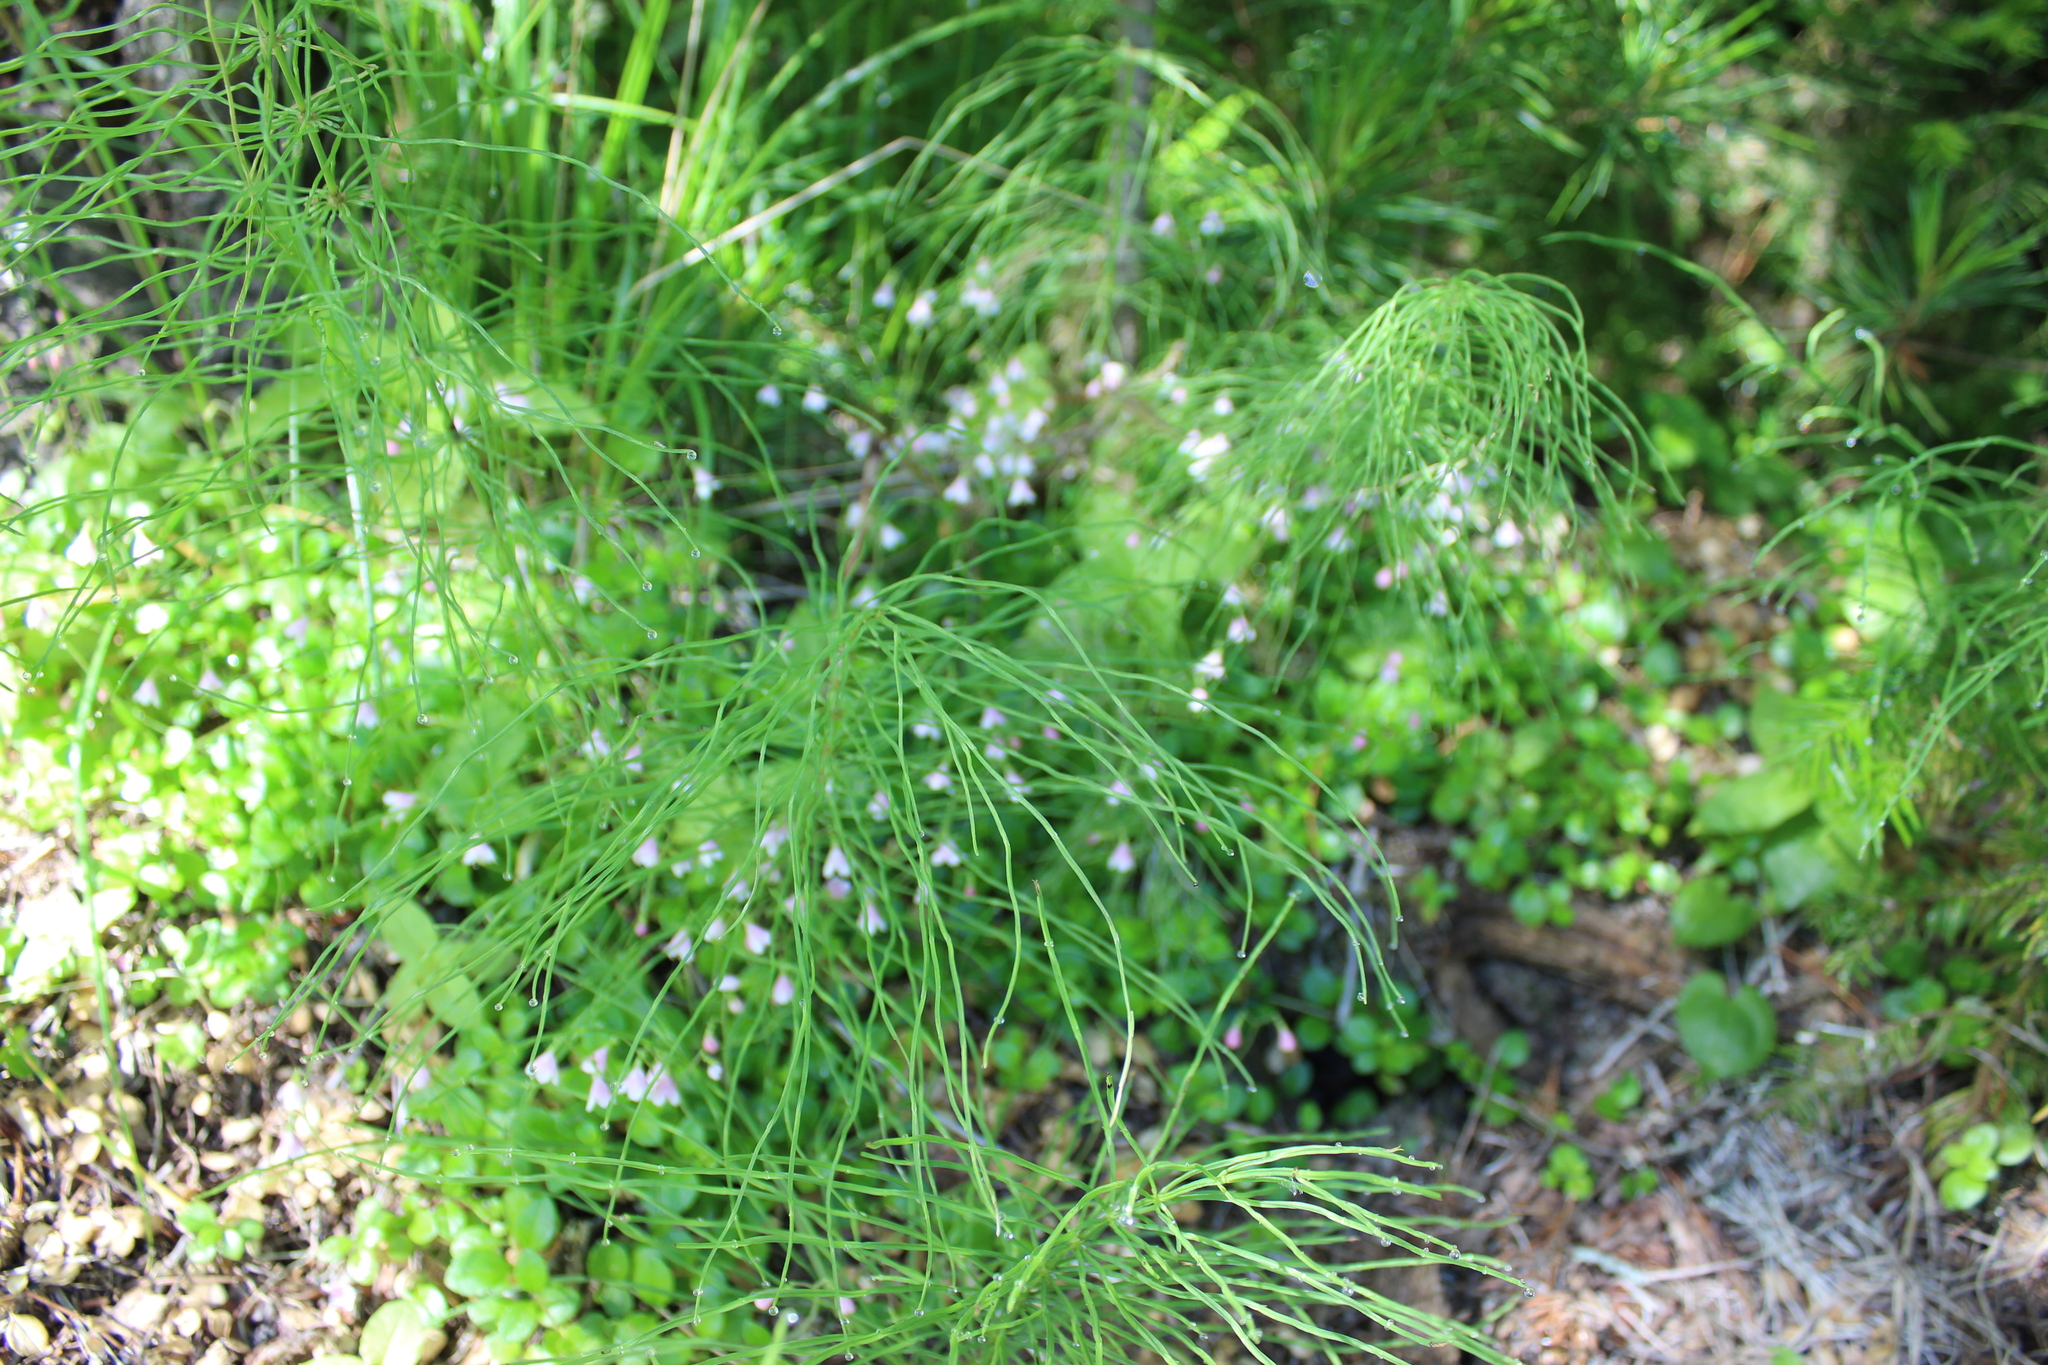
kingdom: Plantae
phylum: Tracheophyta
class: Polypodiopsida
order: Equisetales
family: Equisetaceae
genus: Equisetum
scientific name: Equisetum pratense
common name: Meadow horsetail
